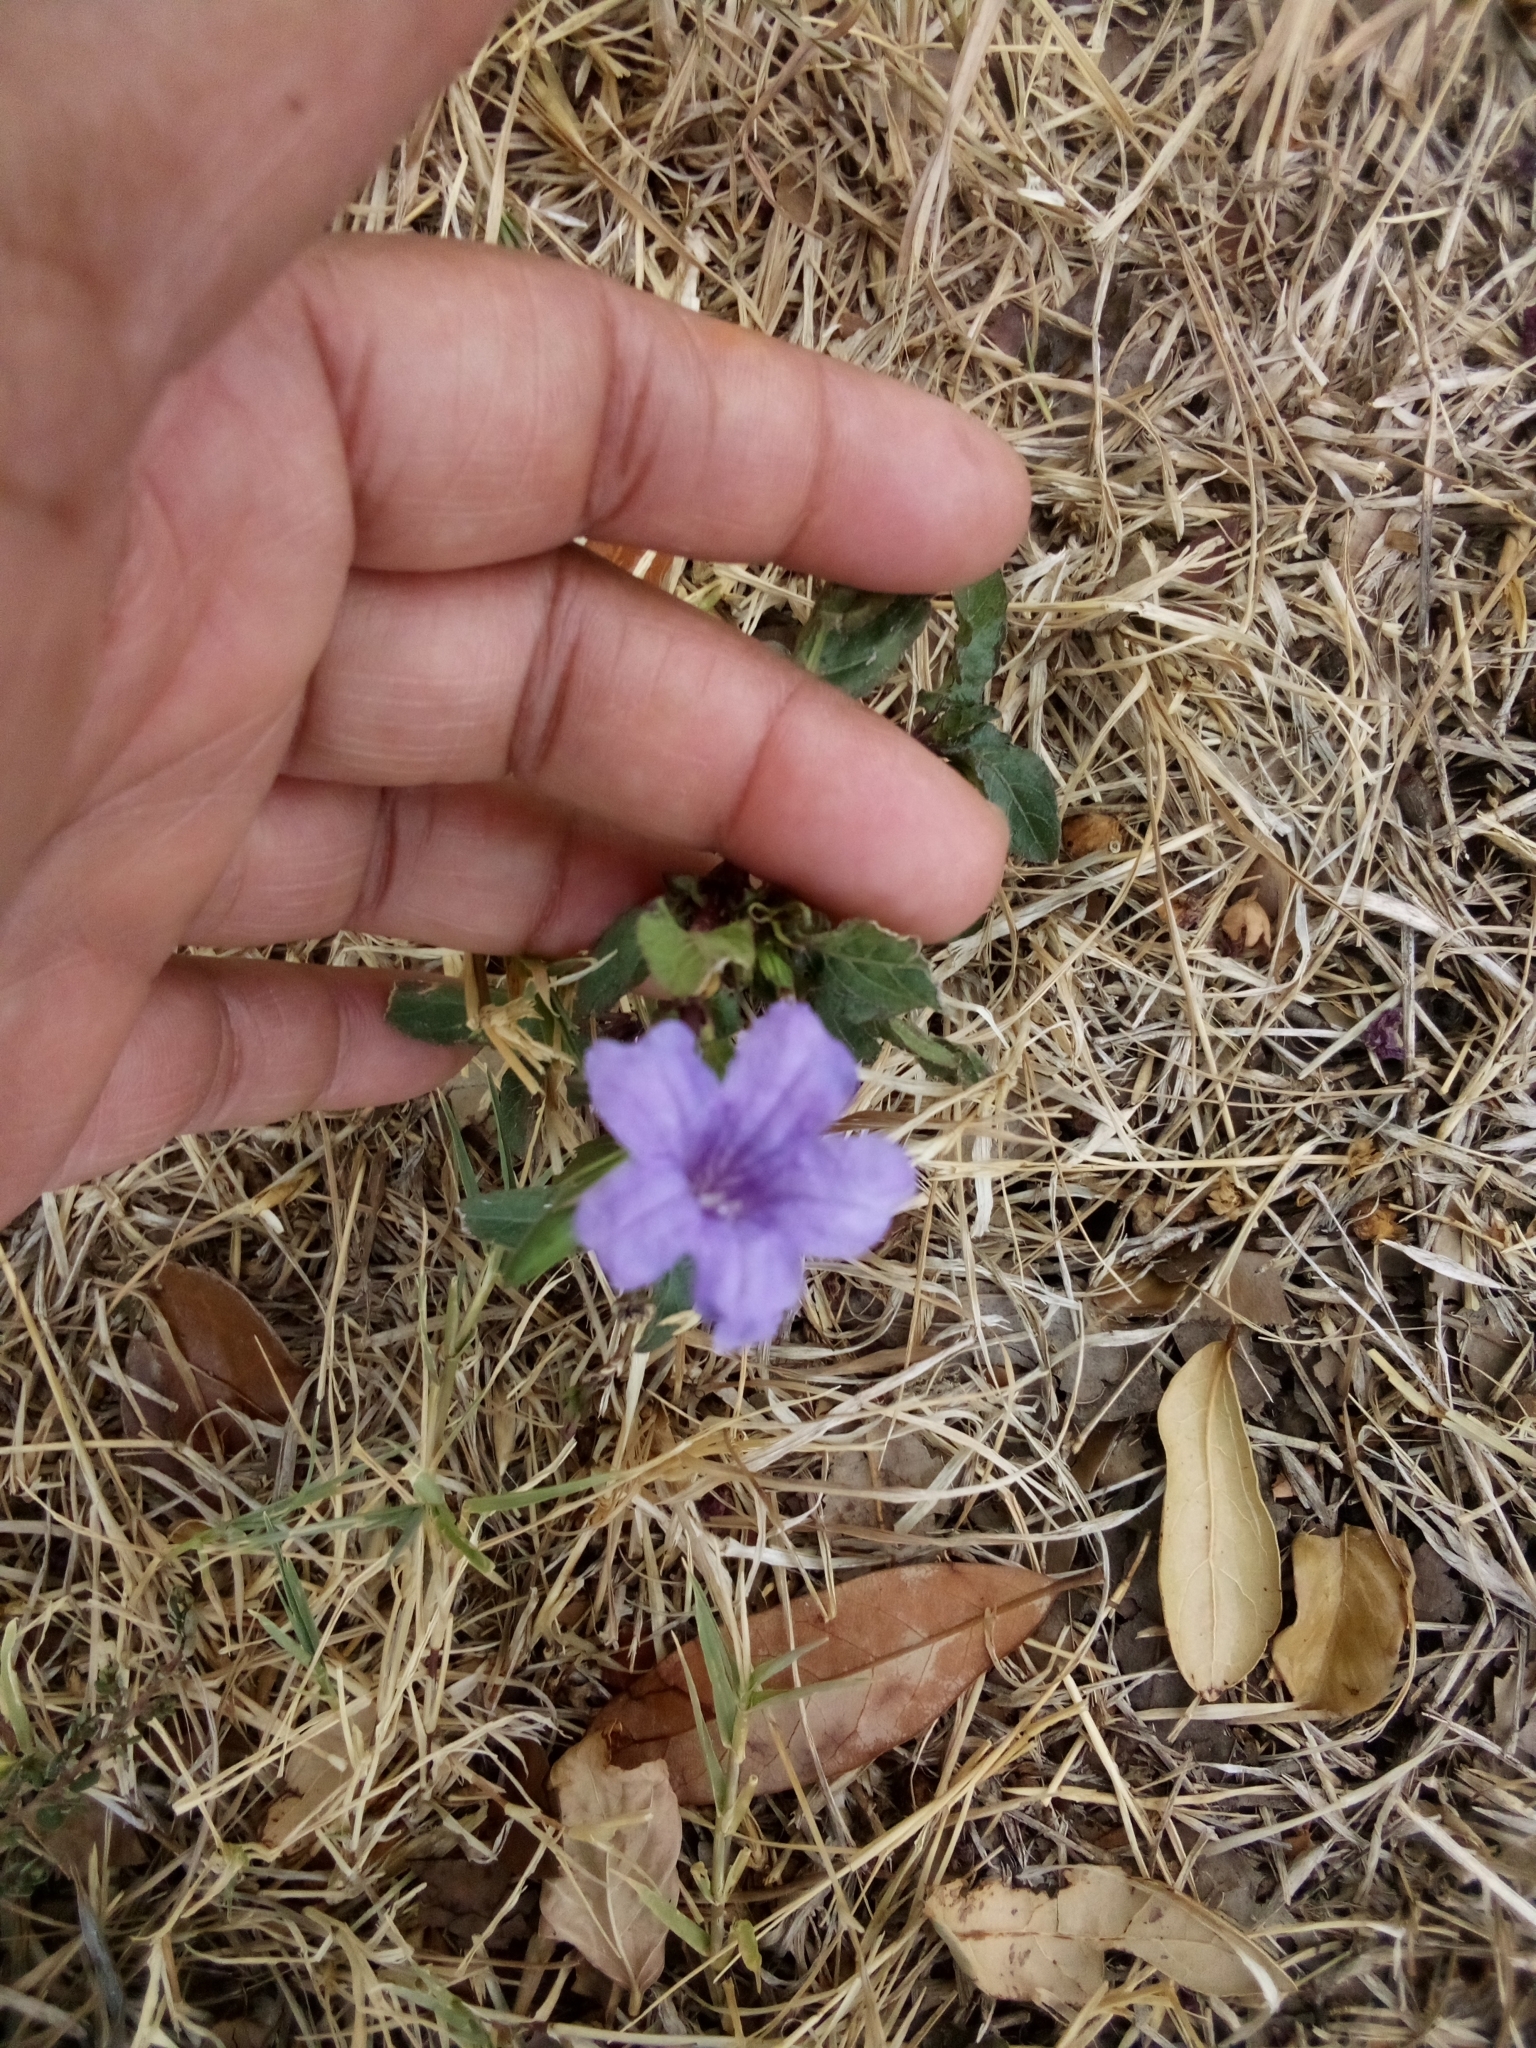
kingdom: Plantae
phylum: Tracheophyta
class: Magnoliopsida
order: Lamiales
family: Acanthaceae
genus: Ruellia
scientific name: Ruellia ciliatiflora
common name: Hairyflower wild petunia
